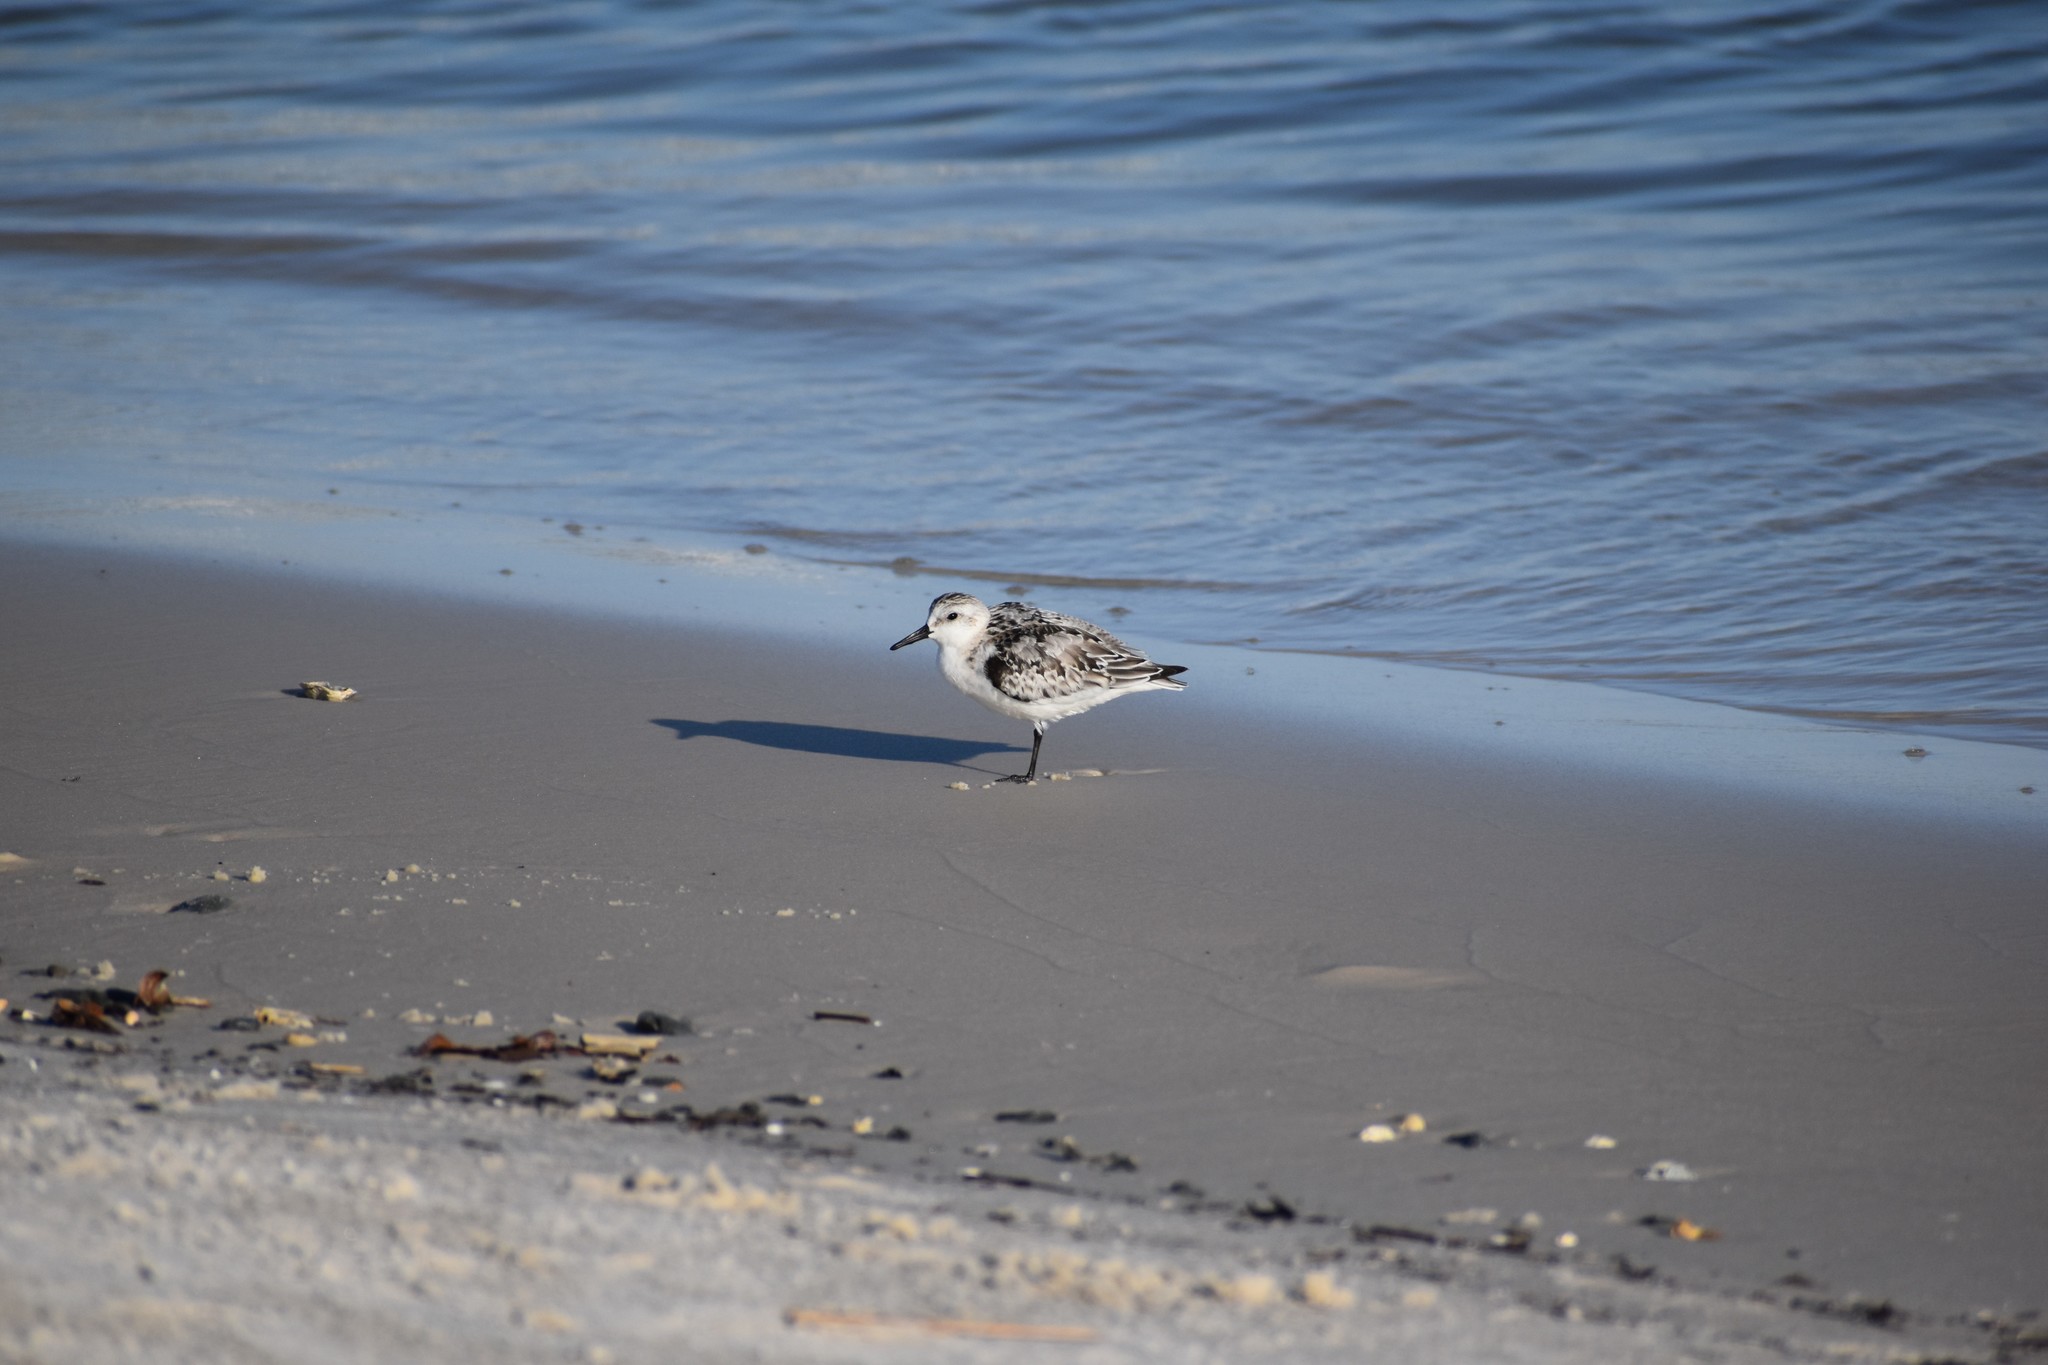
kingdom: Animalia
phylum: Chordata
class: Aves
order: Charadriiformes
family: Scolopacidae
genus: Calidris
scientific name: Calidris alba
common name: Sanderling
